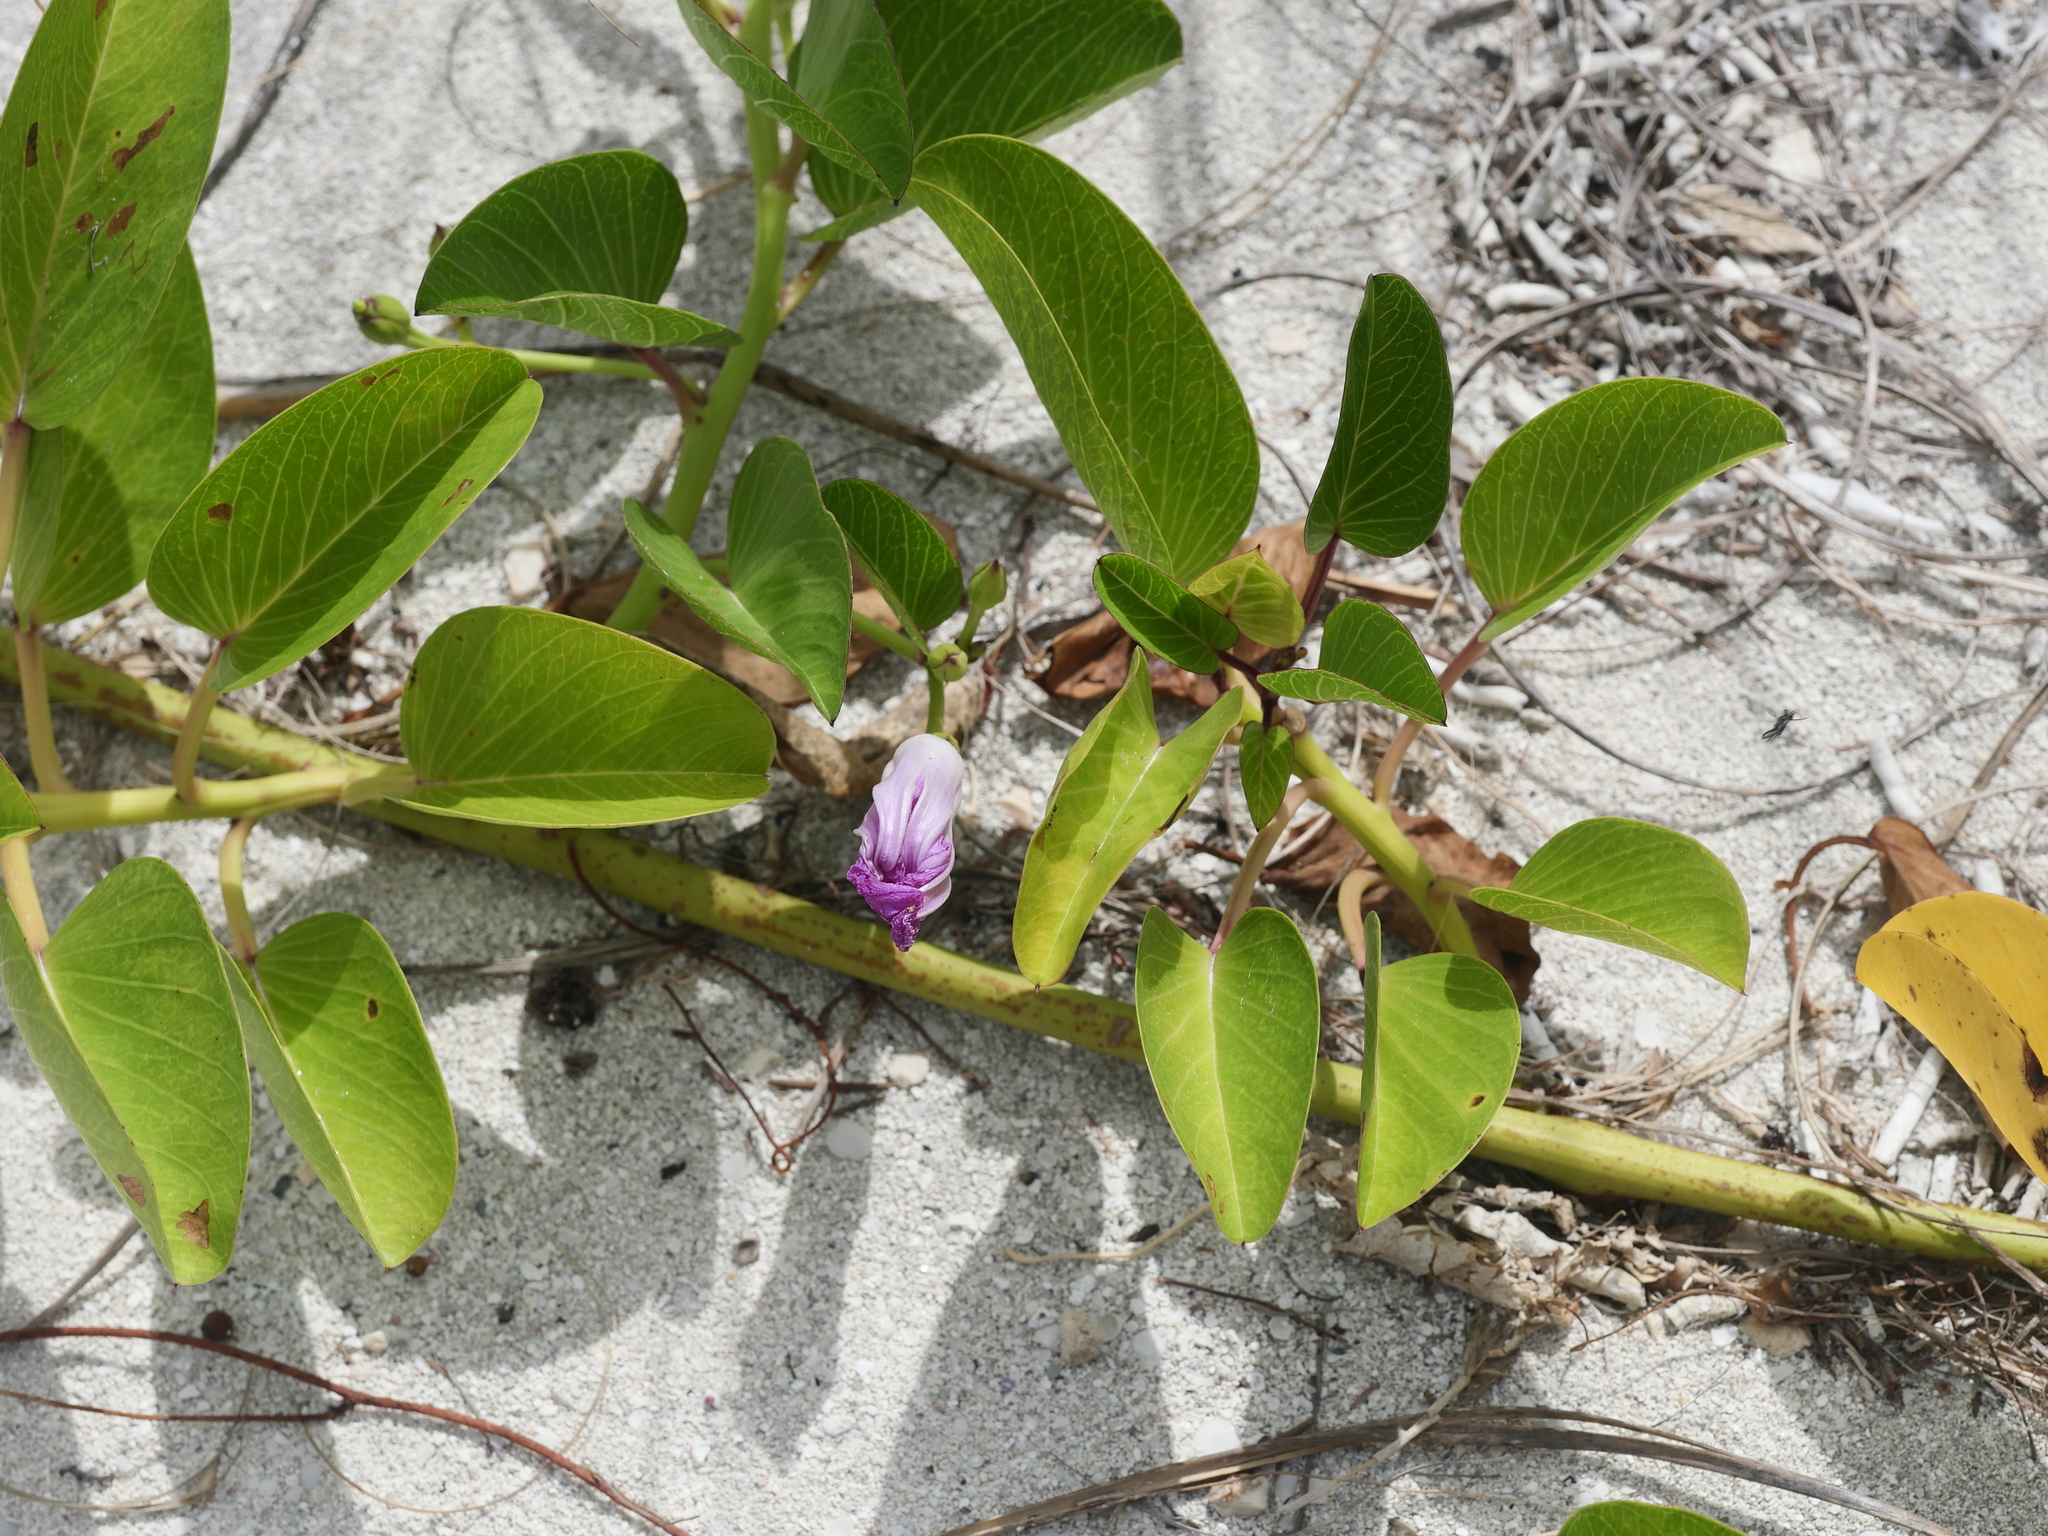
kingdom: Plantae
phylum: Tracheophyta
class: Magnoliopsida
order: Solanales
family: Convolvulaceae
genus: Ipomoea
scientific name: Ipomoea pes-caprae
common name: Beach morning glory
